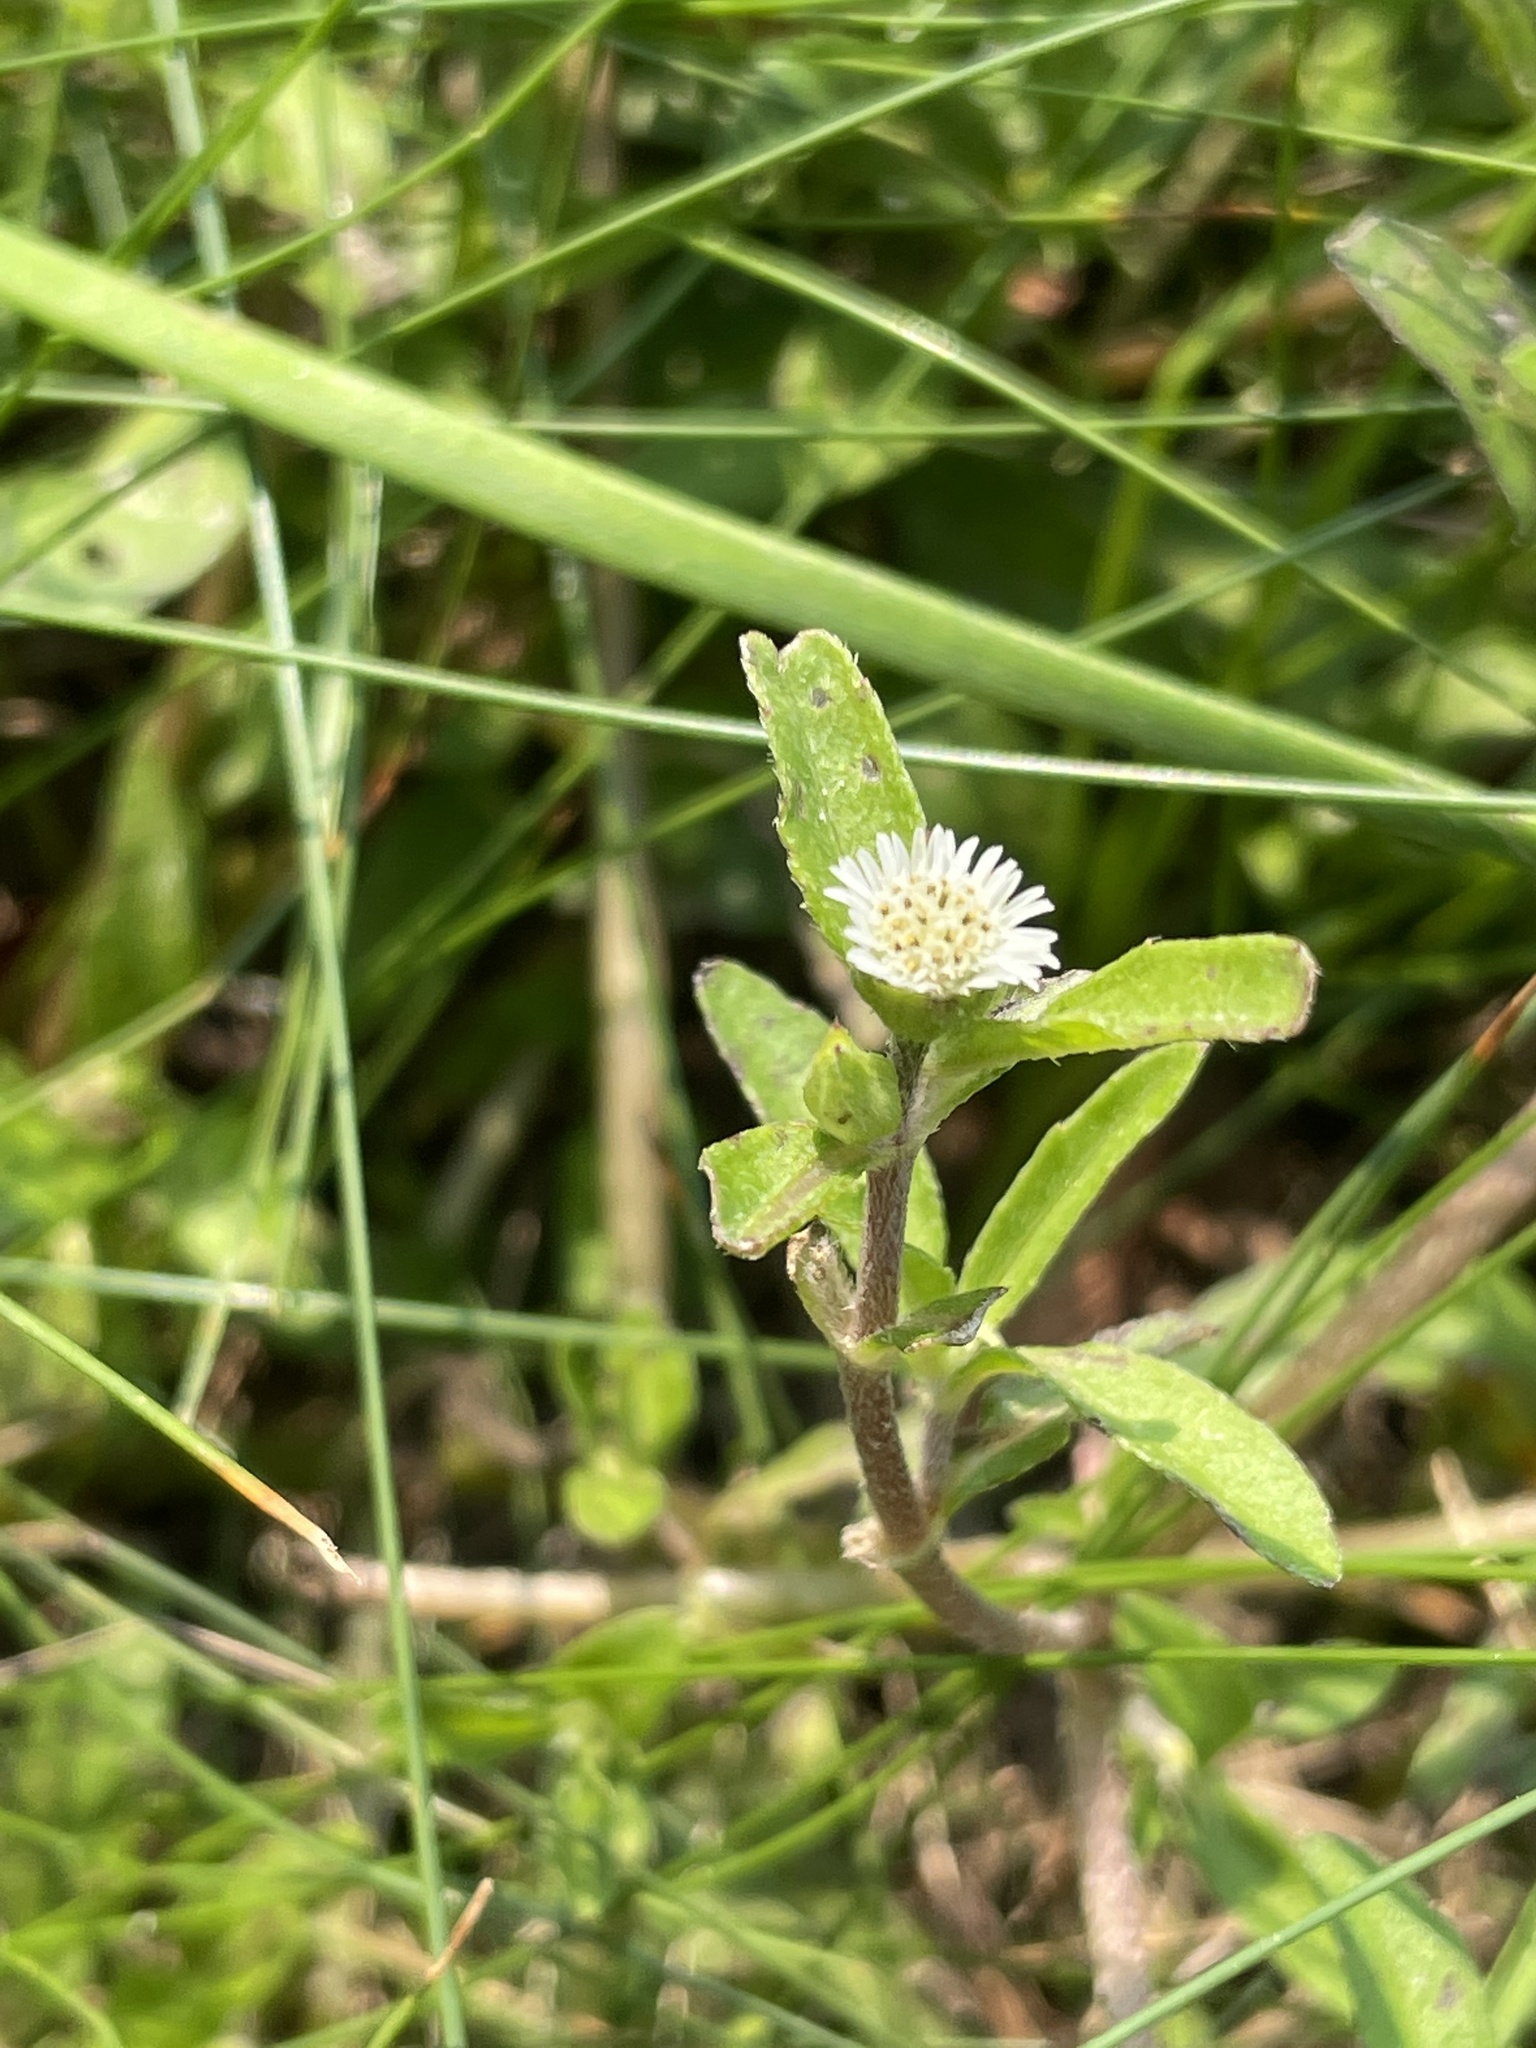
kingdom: Plantae
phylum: Tracheophyta
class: Magnoliopsida
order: Asterales
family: Asteraceae
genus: Eclipta
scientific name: Eclipta prostrata
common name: False daisy
